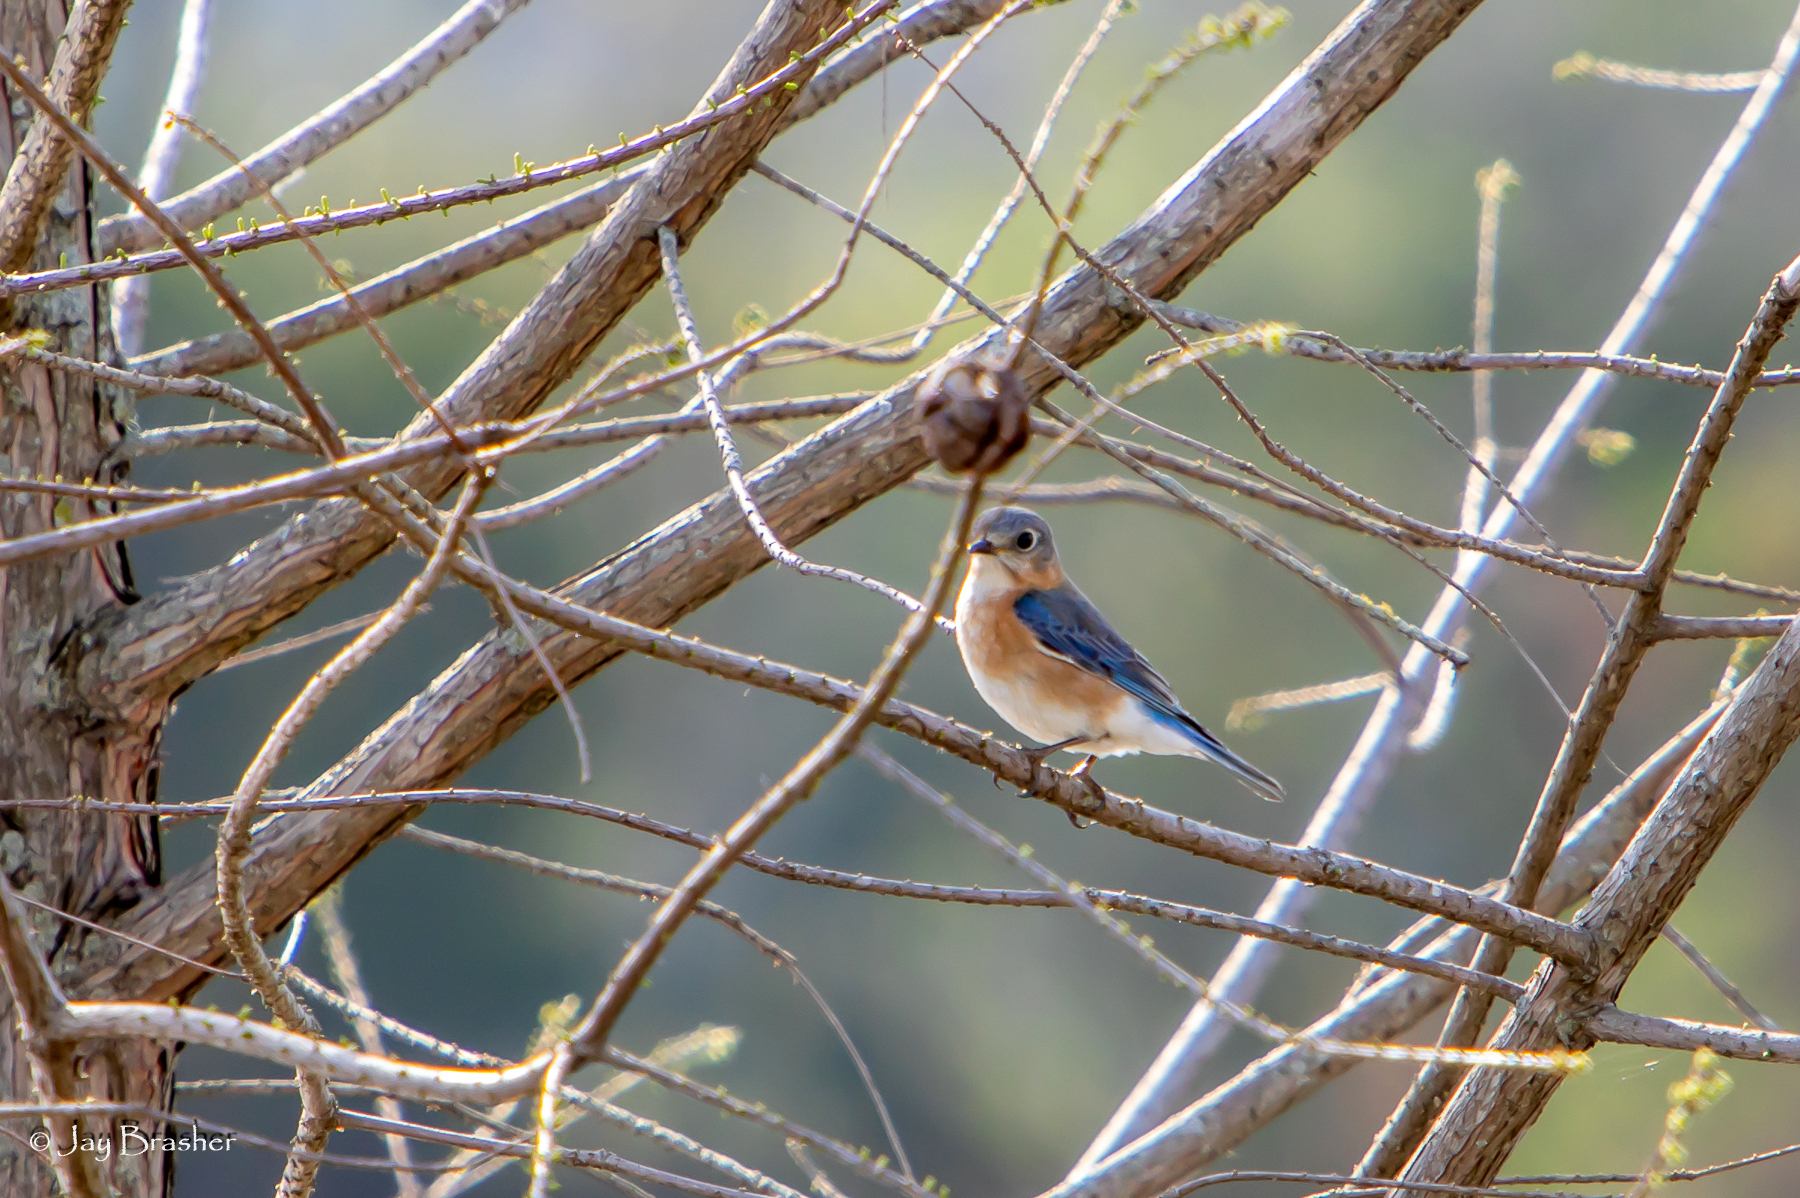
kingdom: Animalia
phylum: Chordata
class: Aves
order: Passeriformes
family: Turdidae
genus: Sialia
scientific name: Sialia sialis
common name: Eastern bluebird
